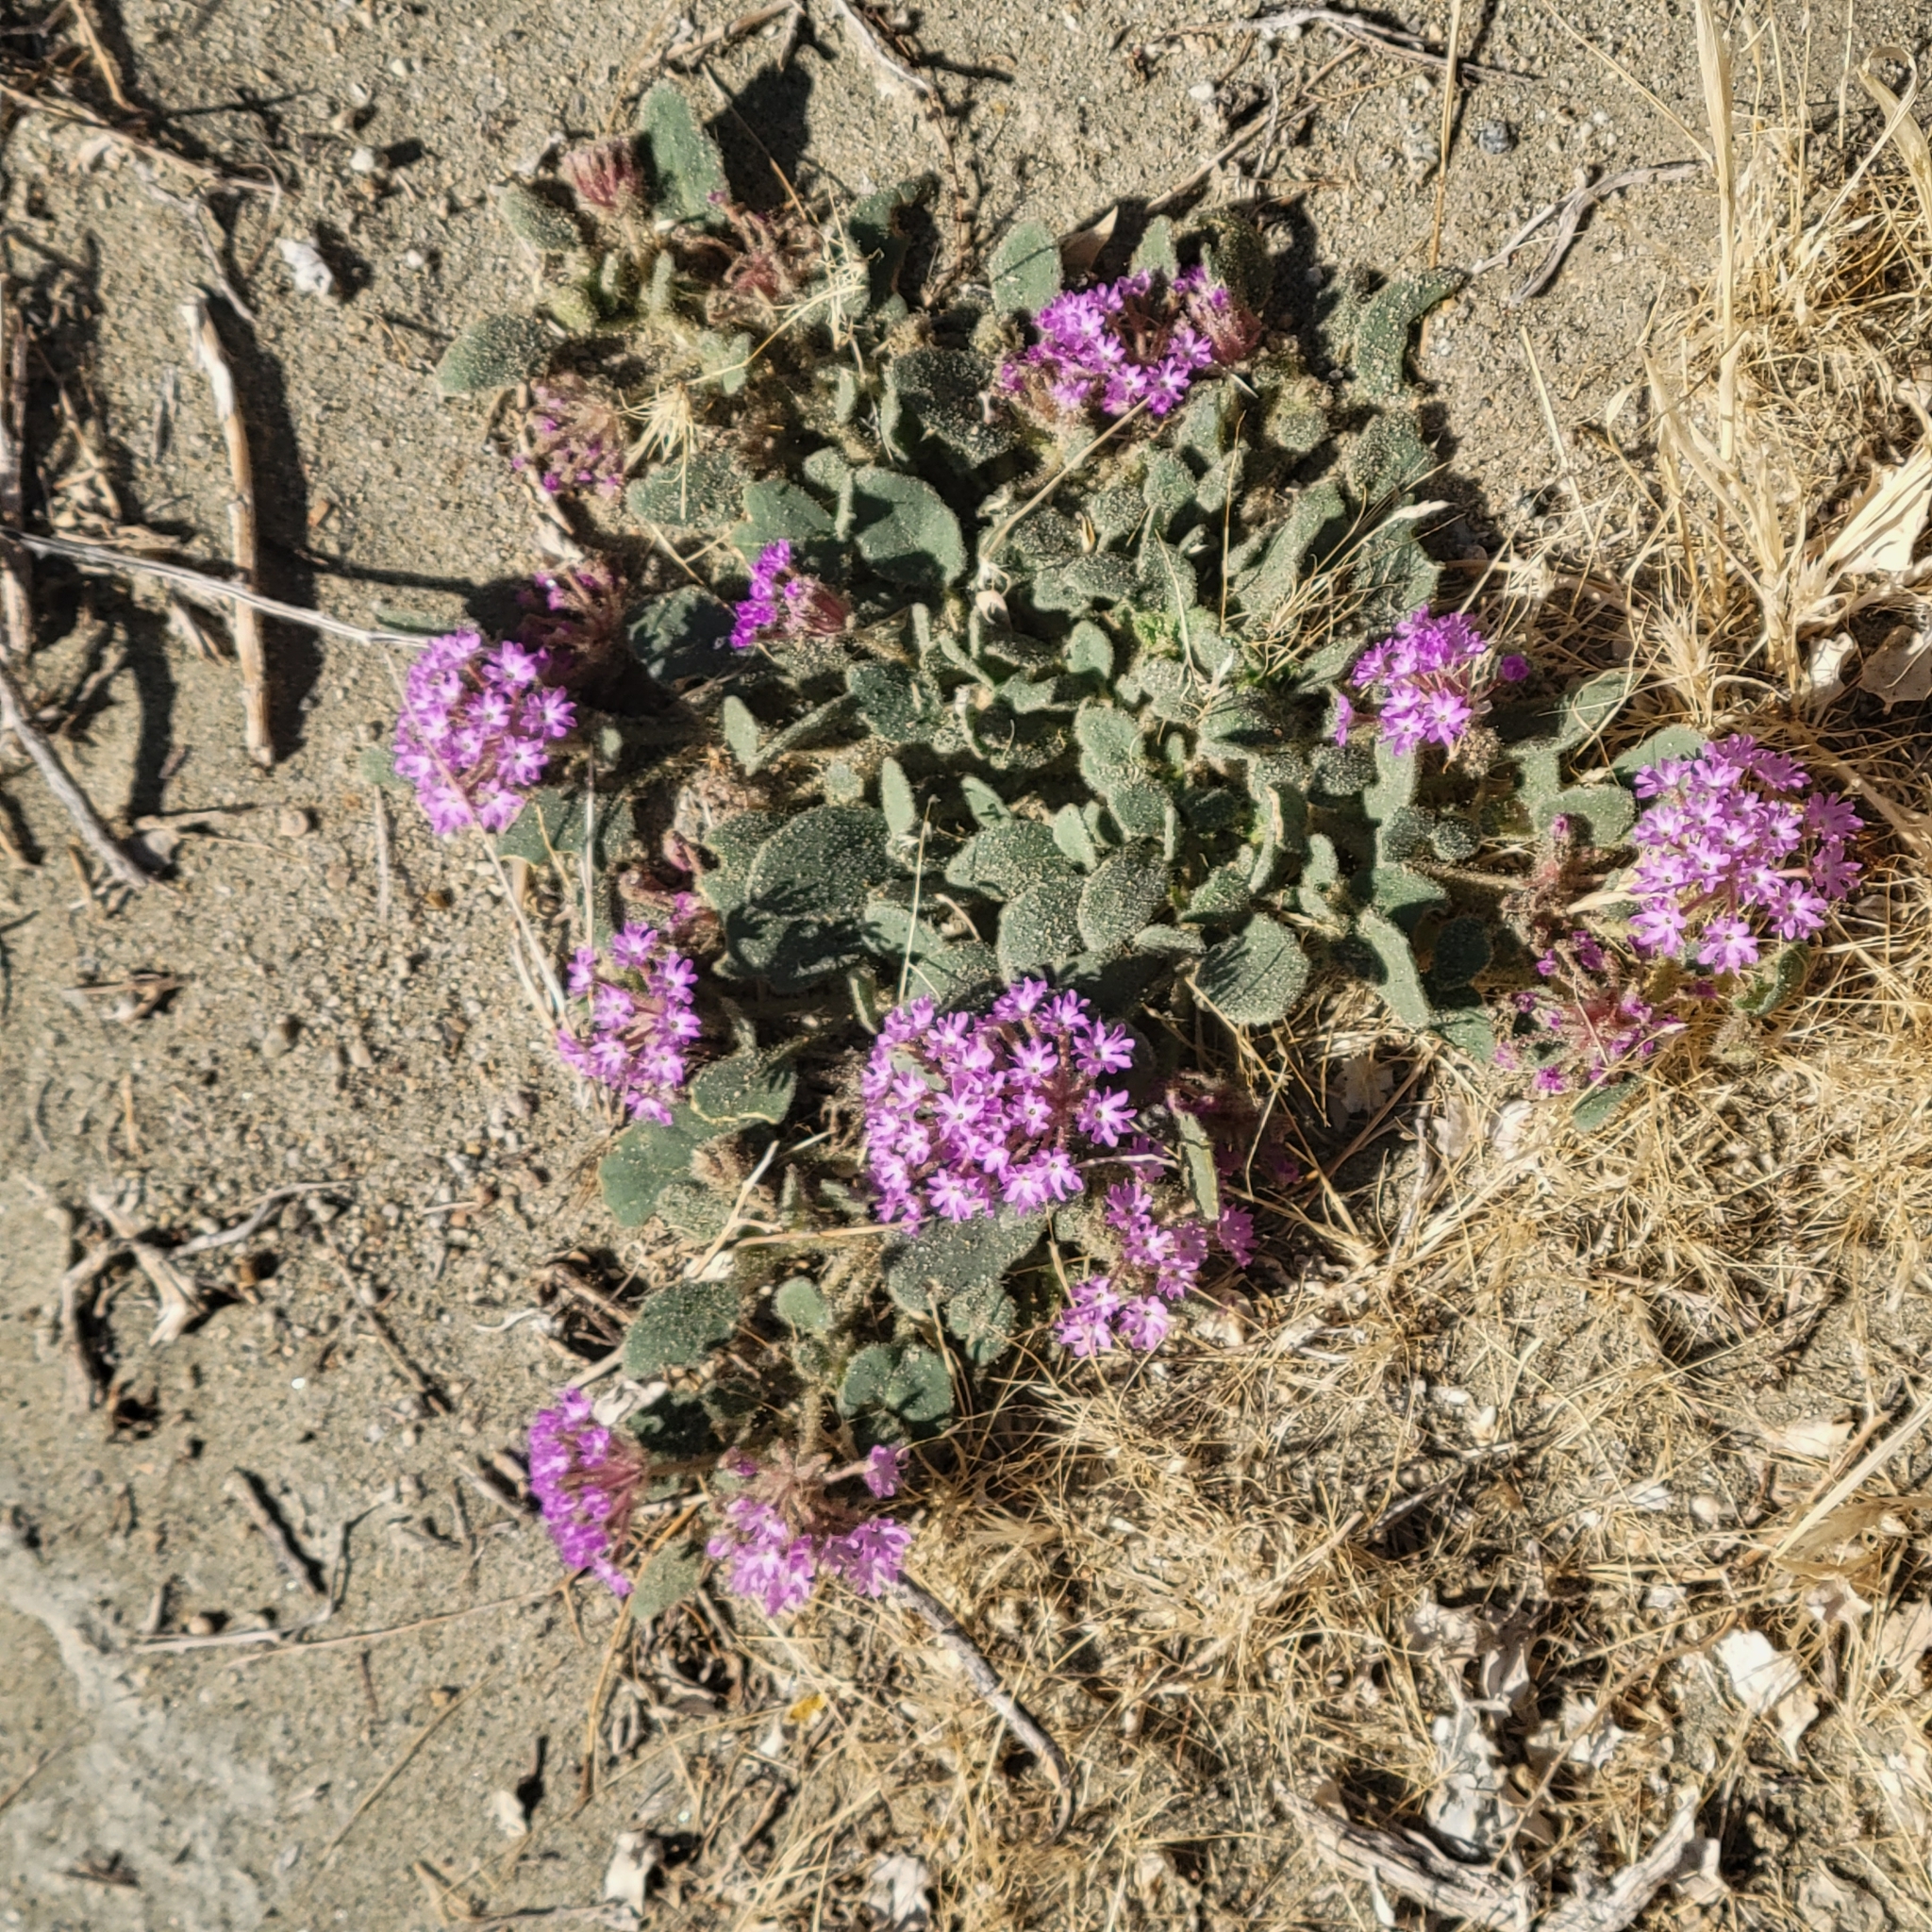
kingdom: Plantae
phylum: Tracheophyta
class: Magnoliopsida
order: Caryophyllales
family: Nyctaginaceae
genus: Abronia
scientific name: Abronia villosa
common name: Desert sand-verbena
